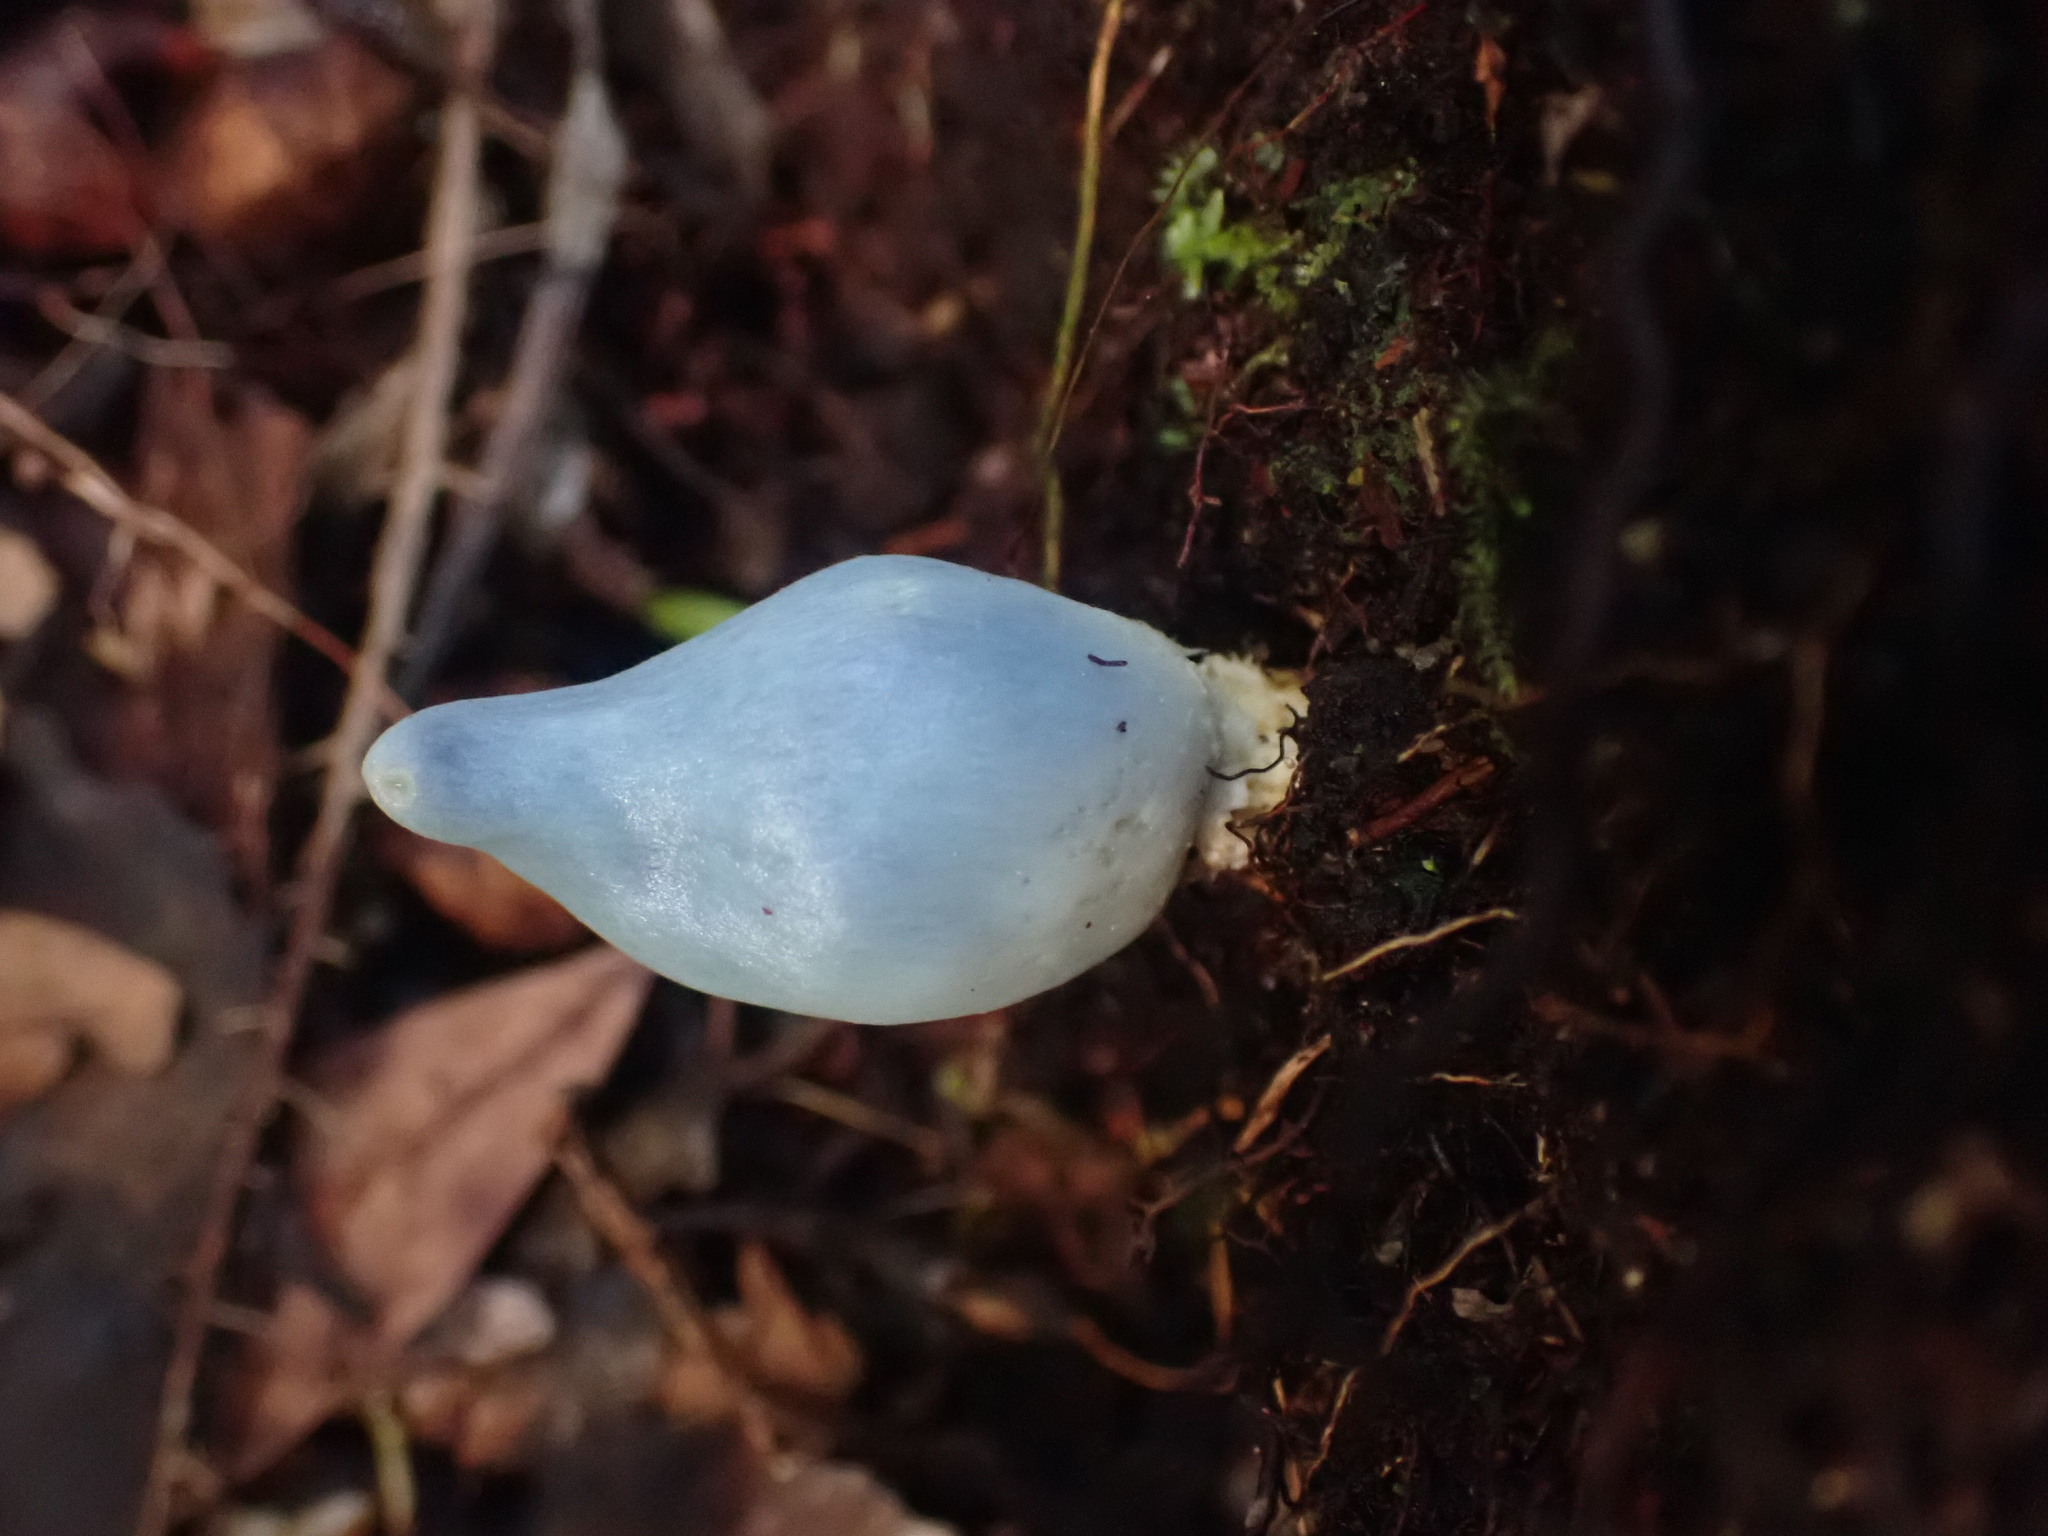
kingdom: Fungi
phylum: Basidiomycota
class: Agaricomycetes
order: Agaricales
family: Agaricaceae
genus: Clavogaster
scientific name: Clavogaster virescens
